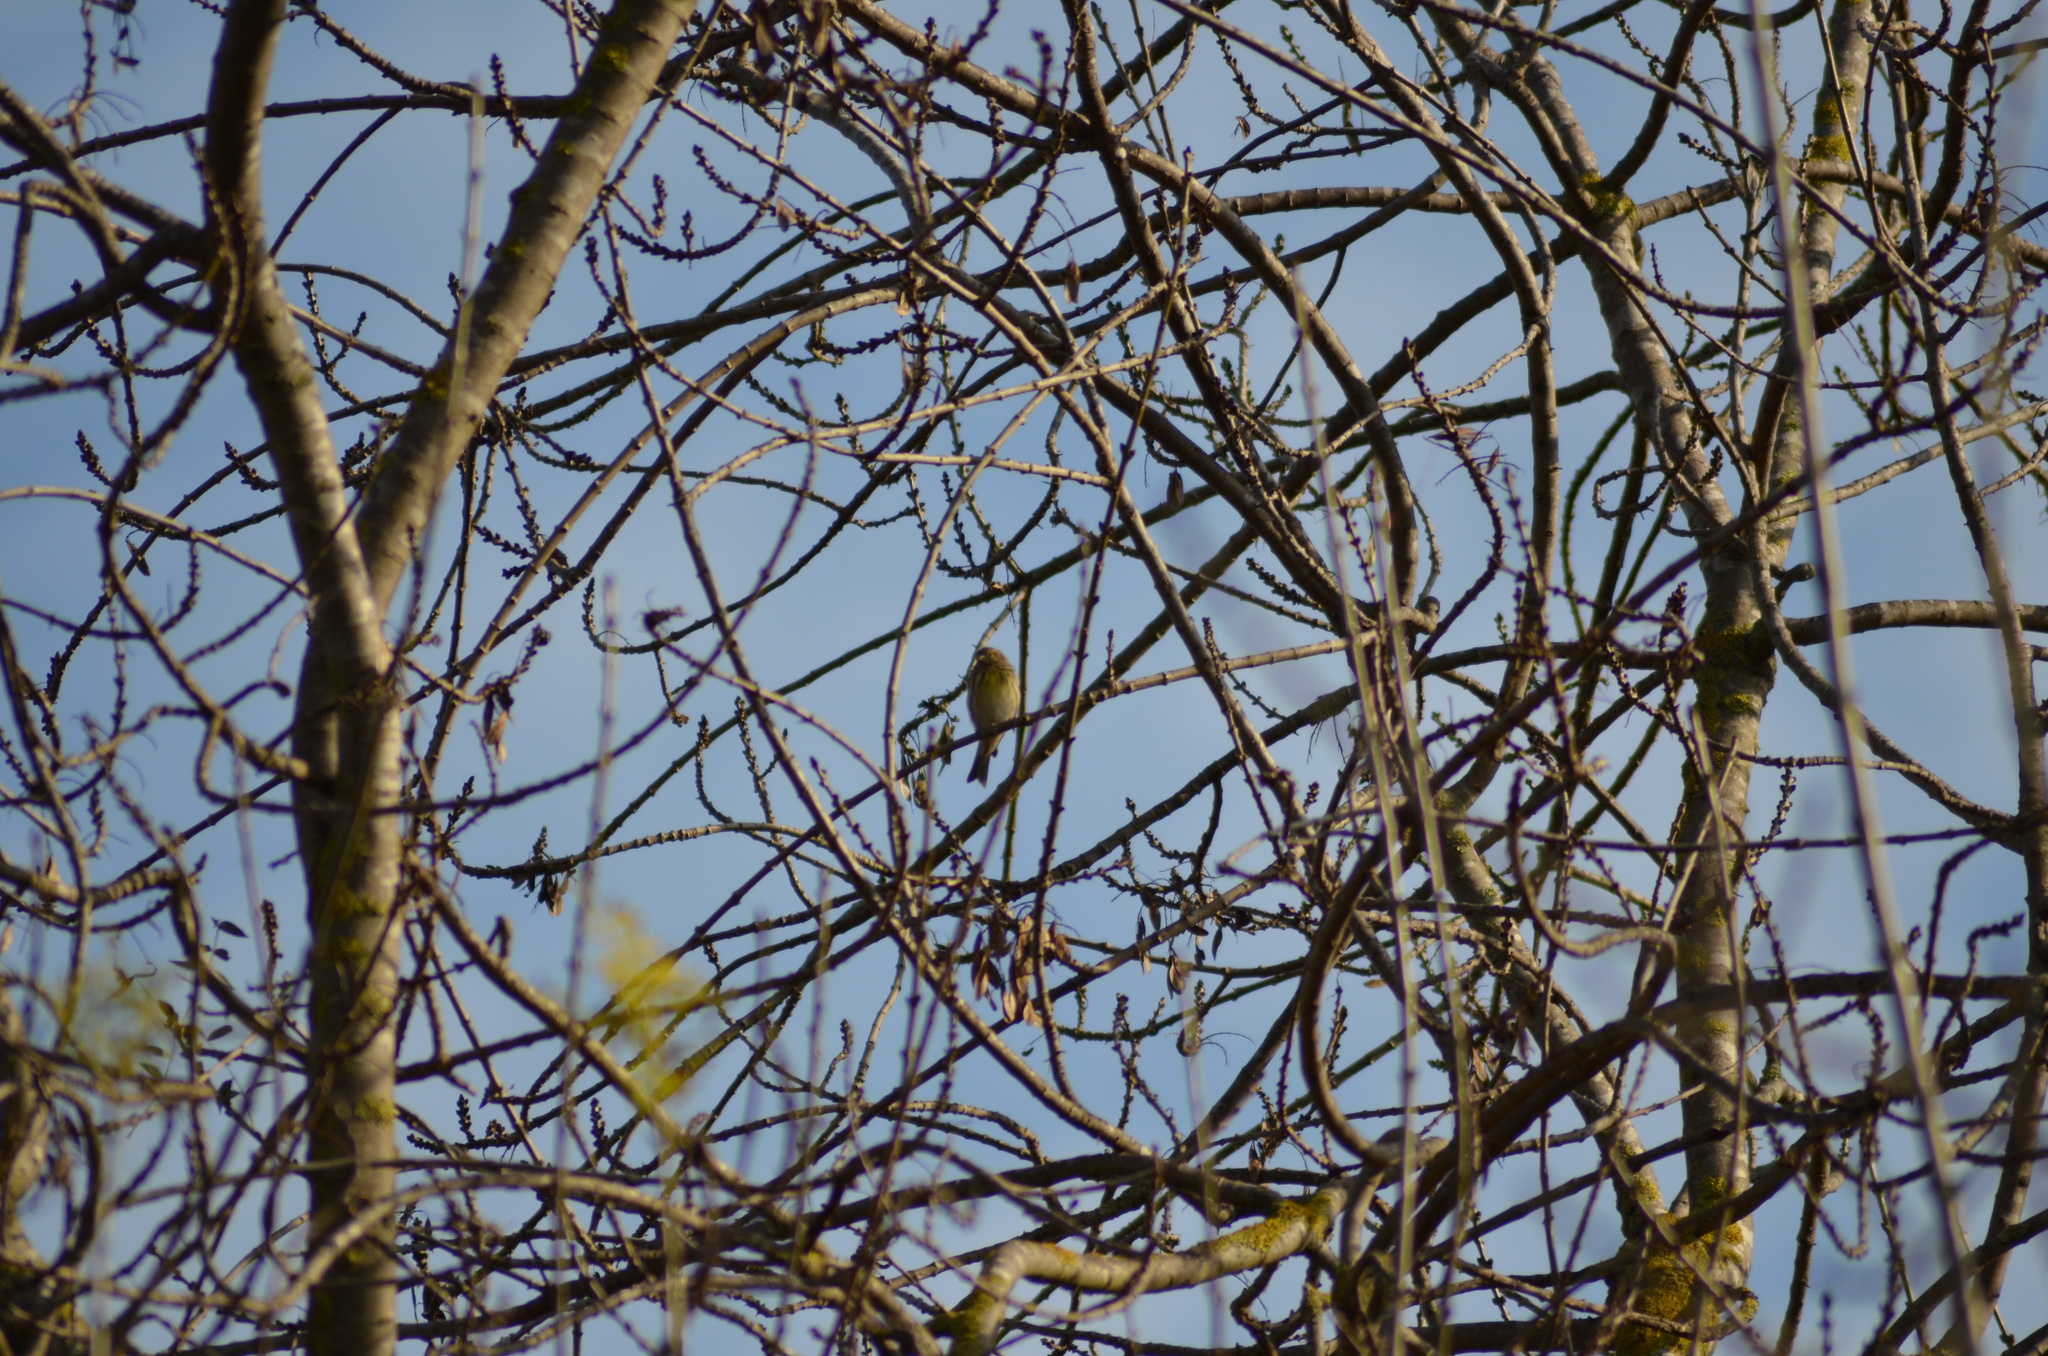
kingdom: Animalia
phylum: Chordata
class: Aves
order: Passeriformes
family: Fringillidae
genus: Serinus
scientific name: Serinus serinus
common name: European serin
